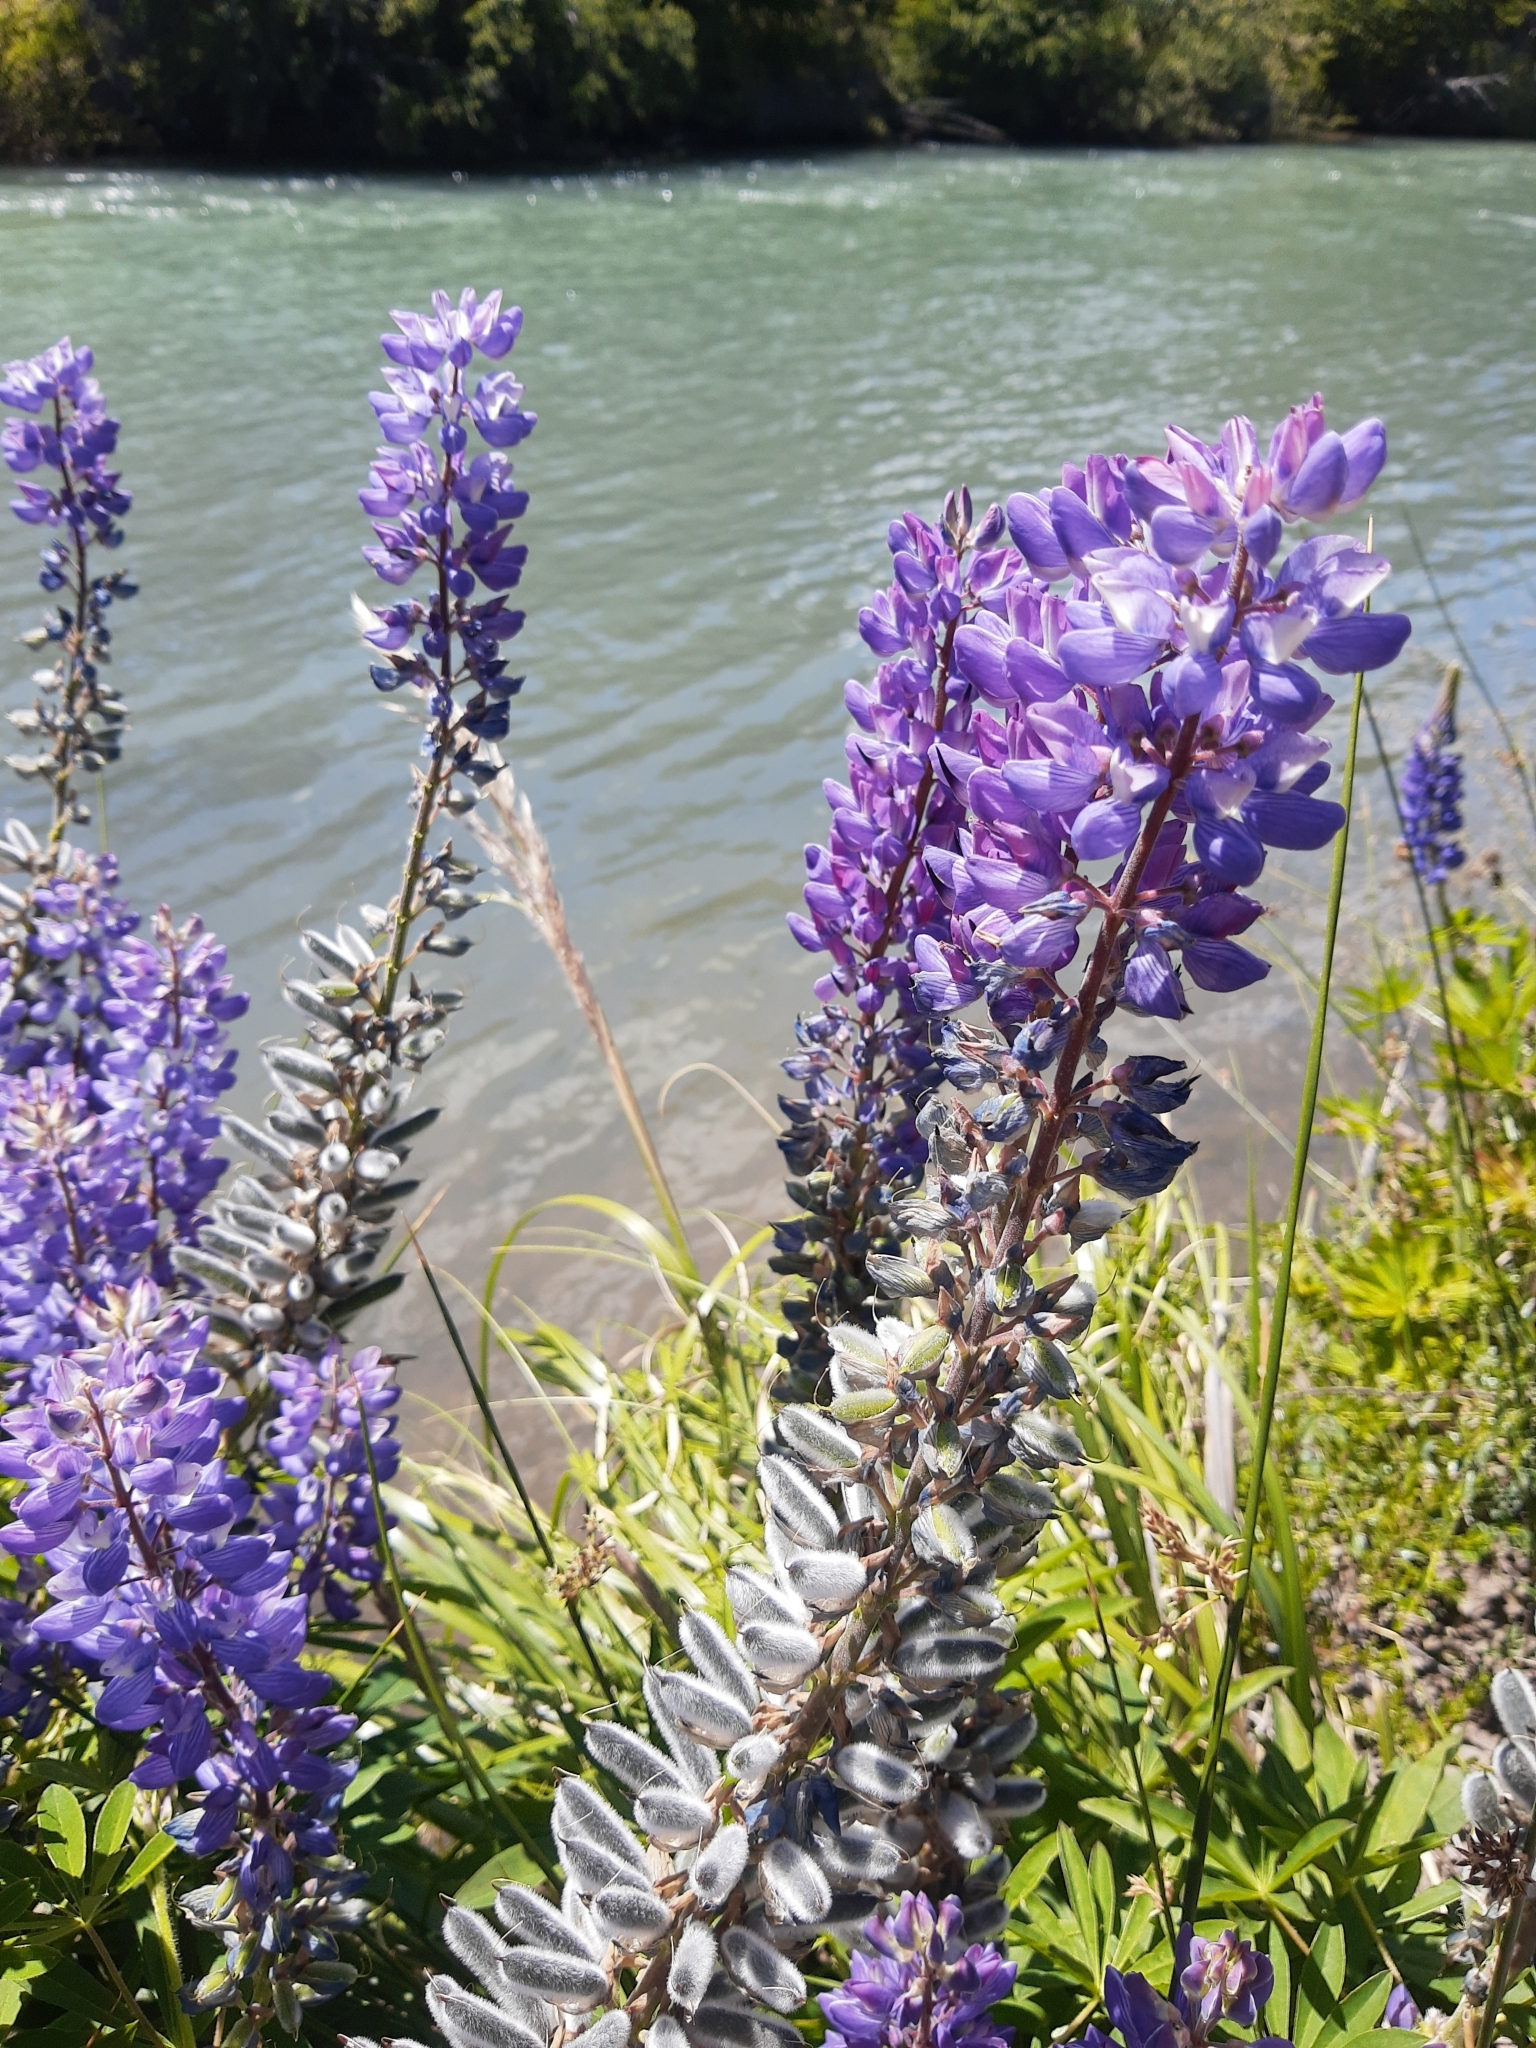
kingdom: Plantae
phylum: Tracheophyta
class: Magnoliopsida
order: Fabales
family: Fabaceae
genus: Lupinus
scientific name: Lupinus polyphyllus
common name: Garden lupin
